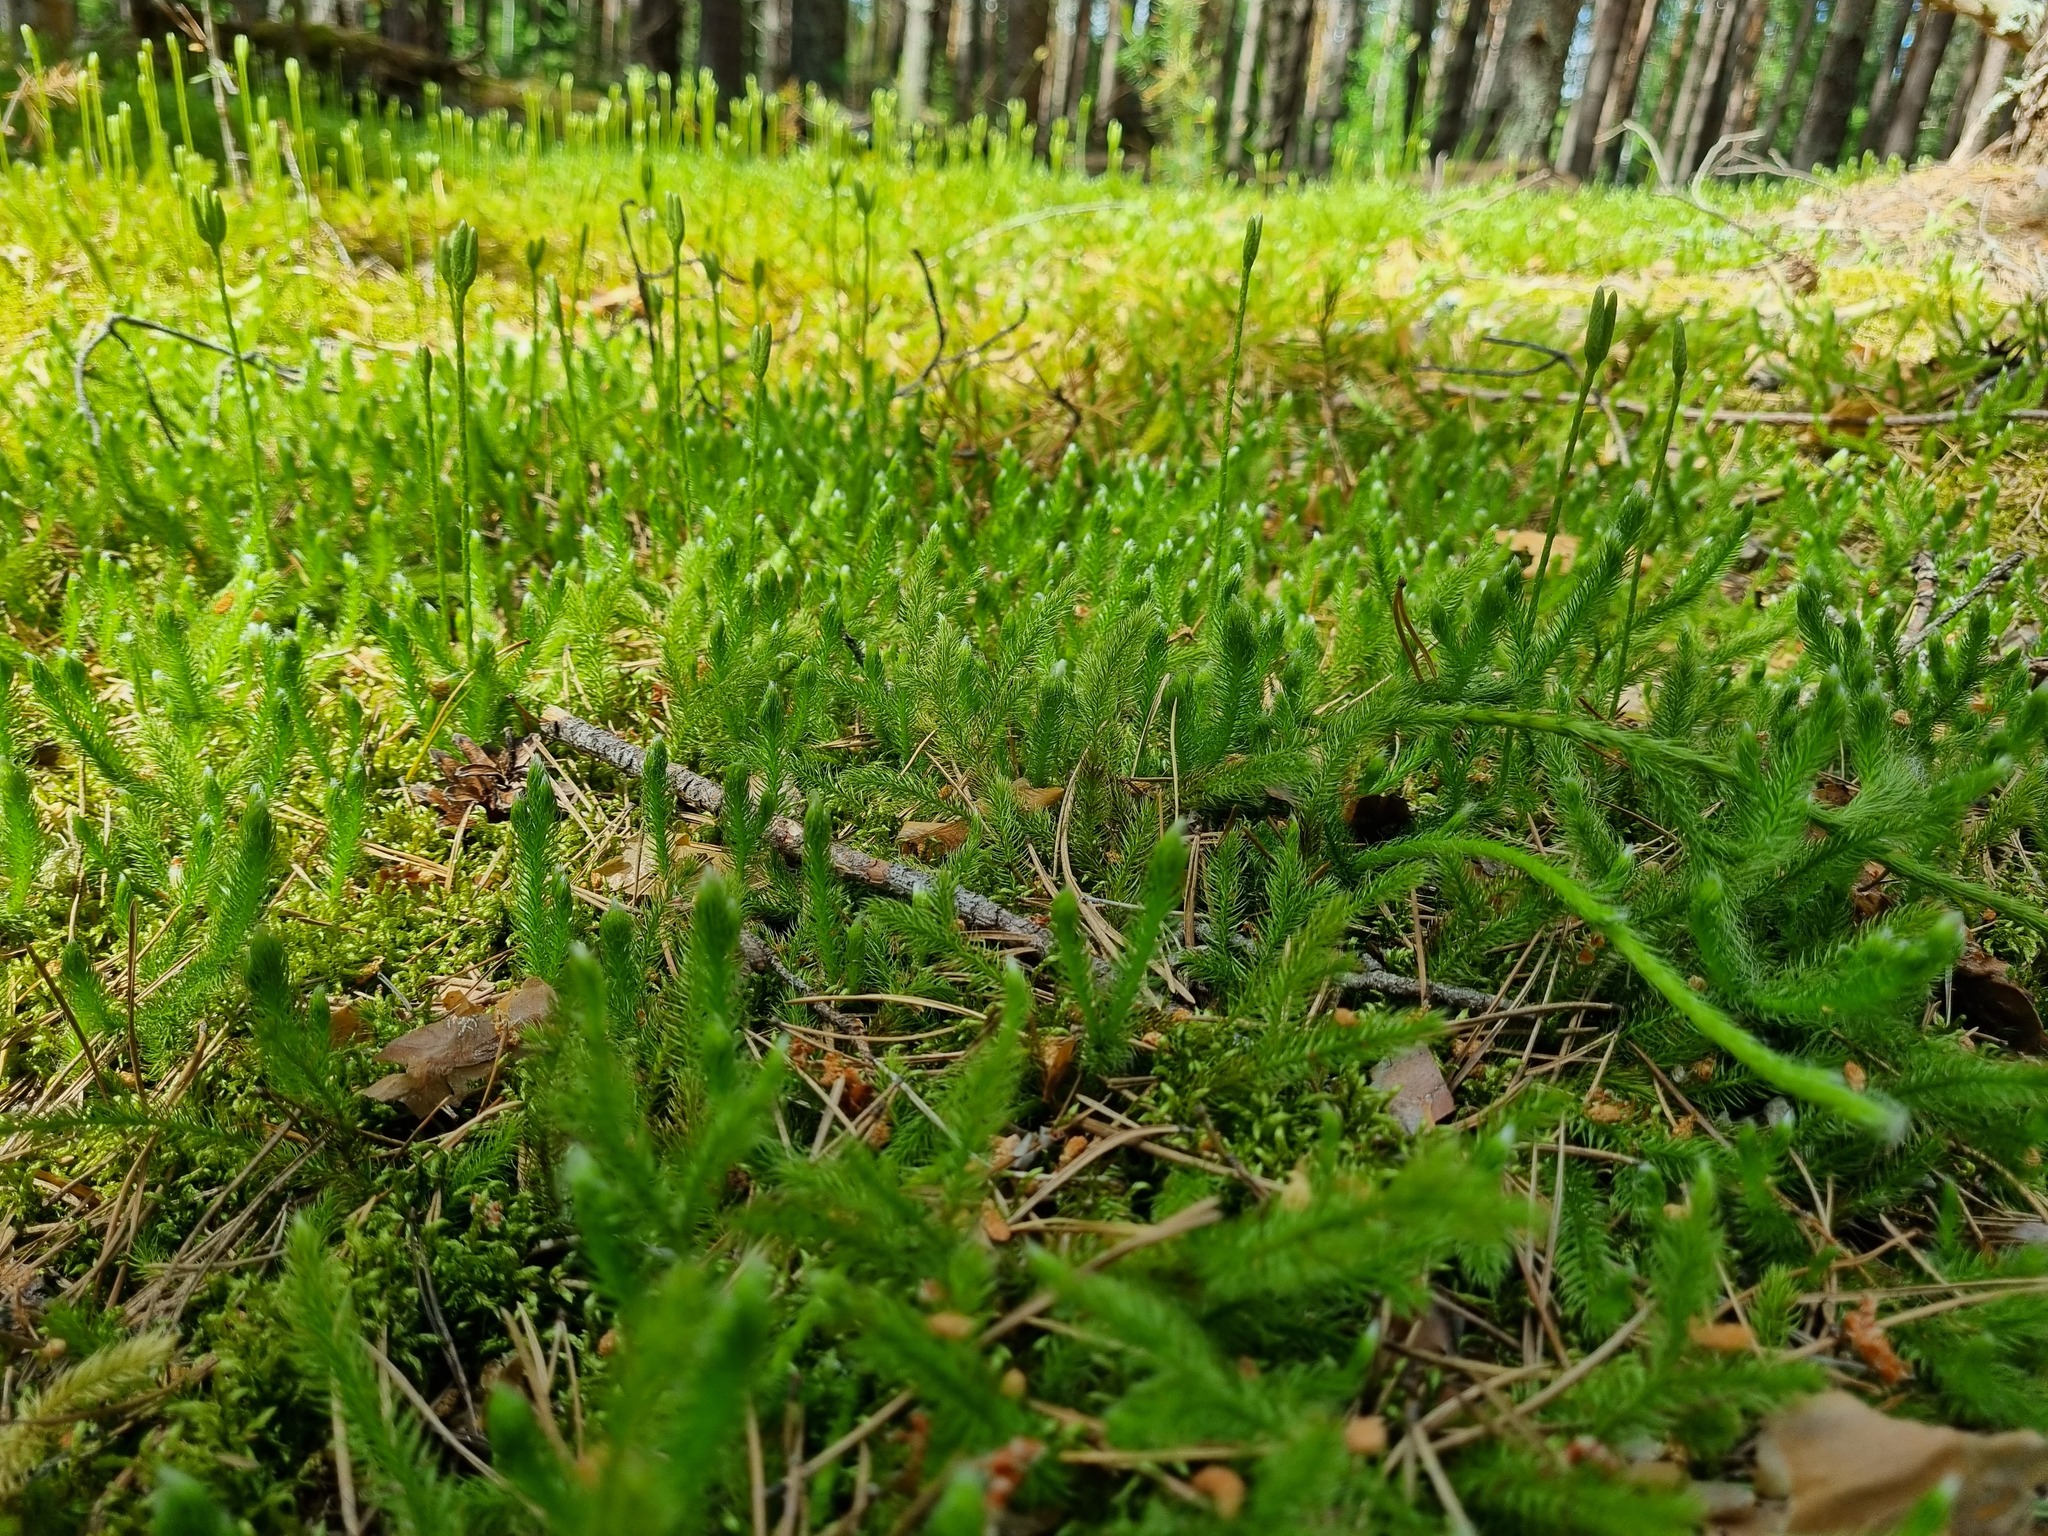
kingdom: Plantae
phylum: Tracheophyta
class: Lycopodiopsida
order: Lycopodiales
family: Lycopodiaceae
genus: Lycopodium
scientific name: Lycopodium clavatum
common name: Stag's-horn clubmoss
